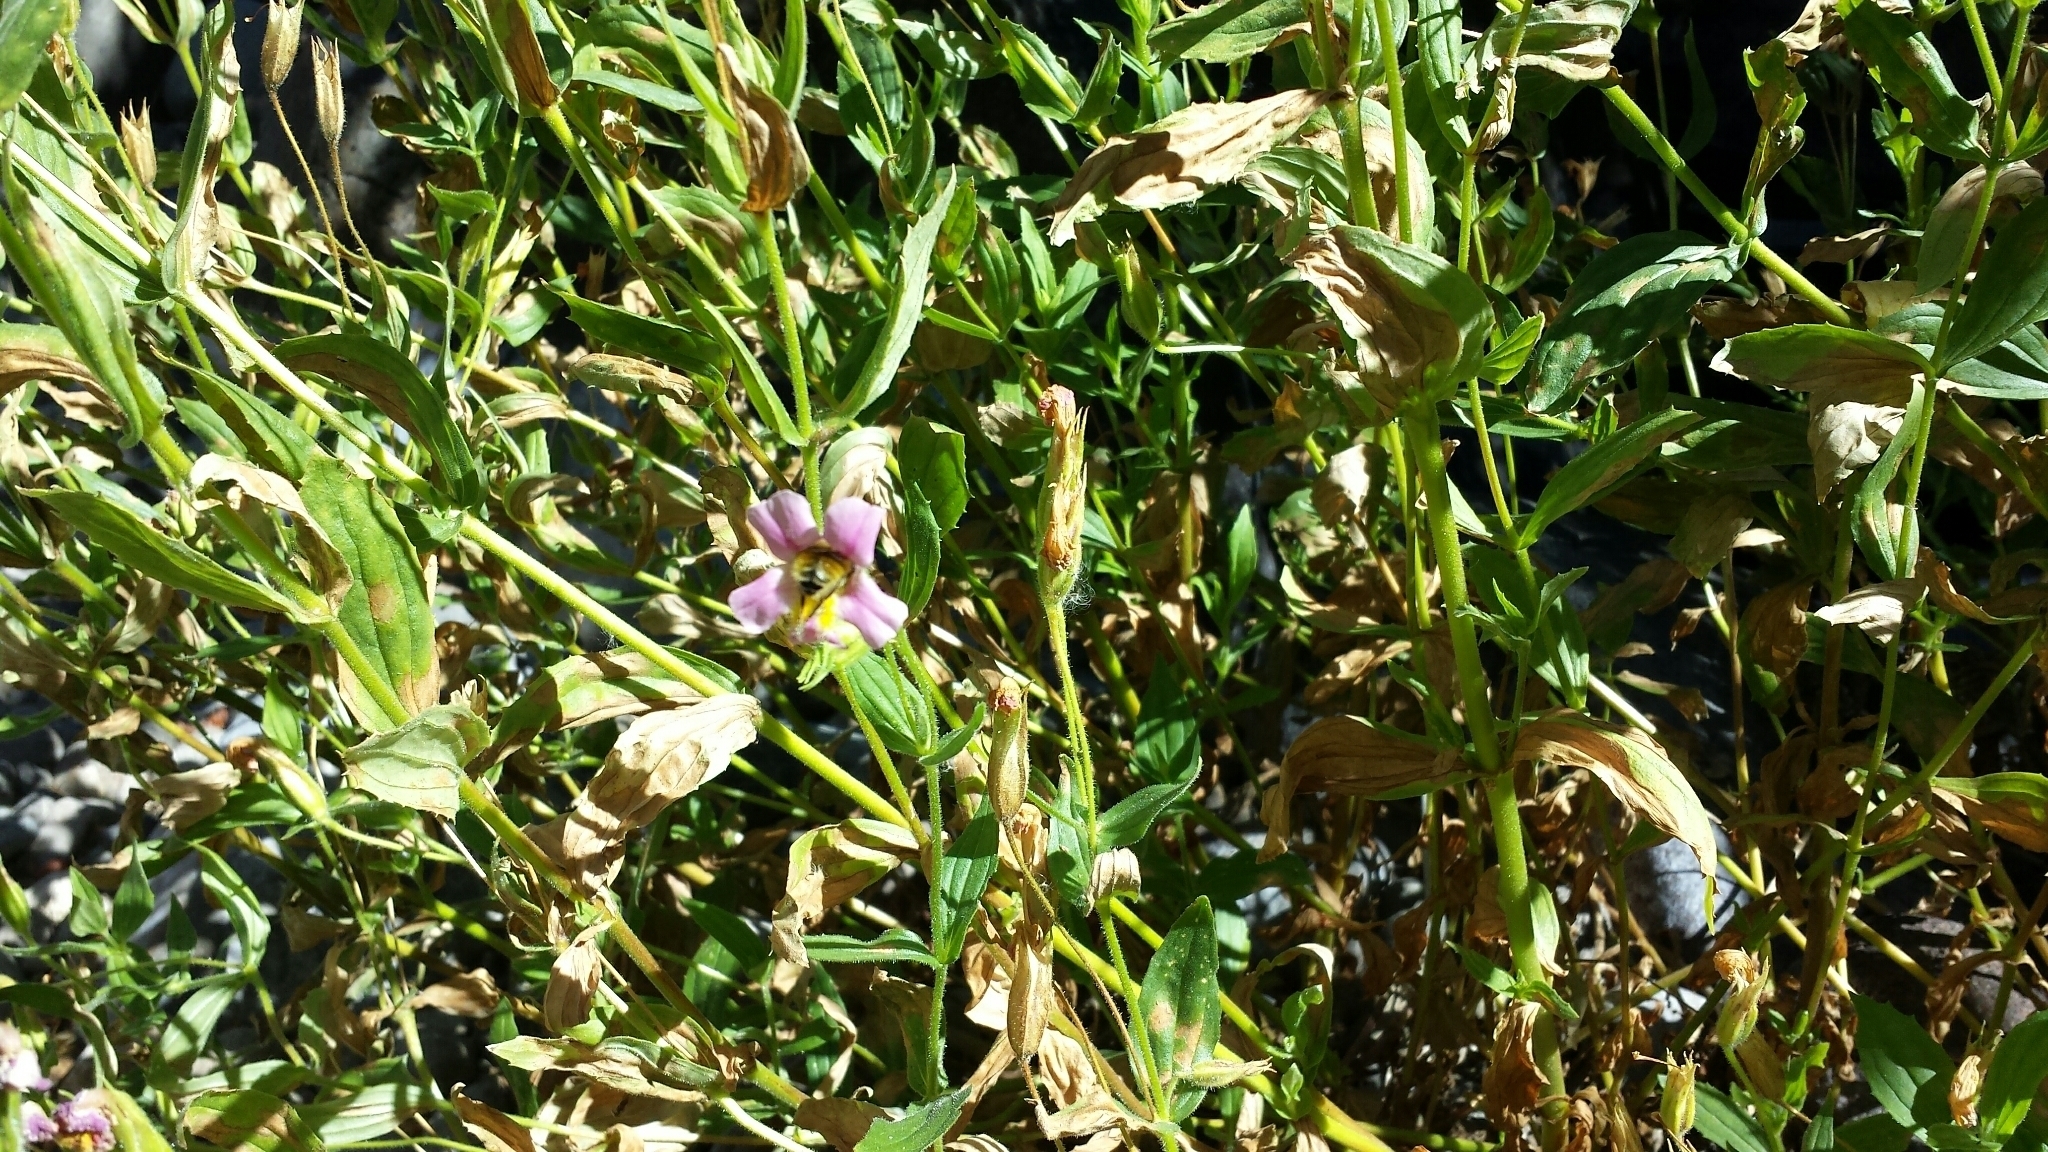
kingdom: Plantae
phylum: Tracheophyta
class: Magnoliopsida
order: Lamiales
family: Phrymaceae
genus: Erythranthe
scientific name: Erythranthe erubescens
